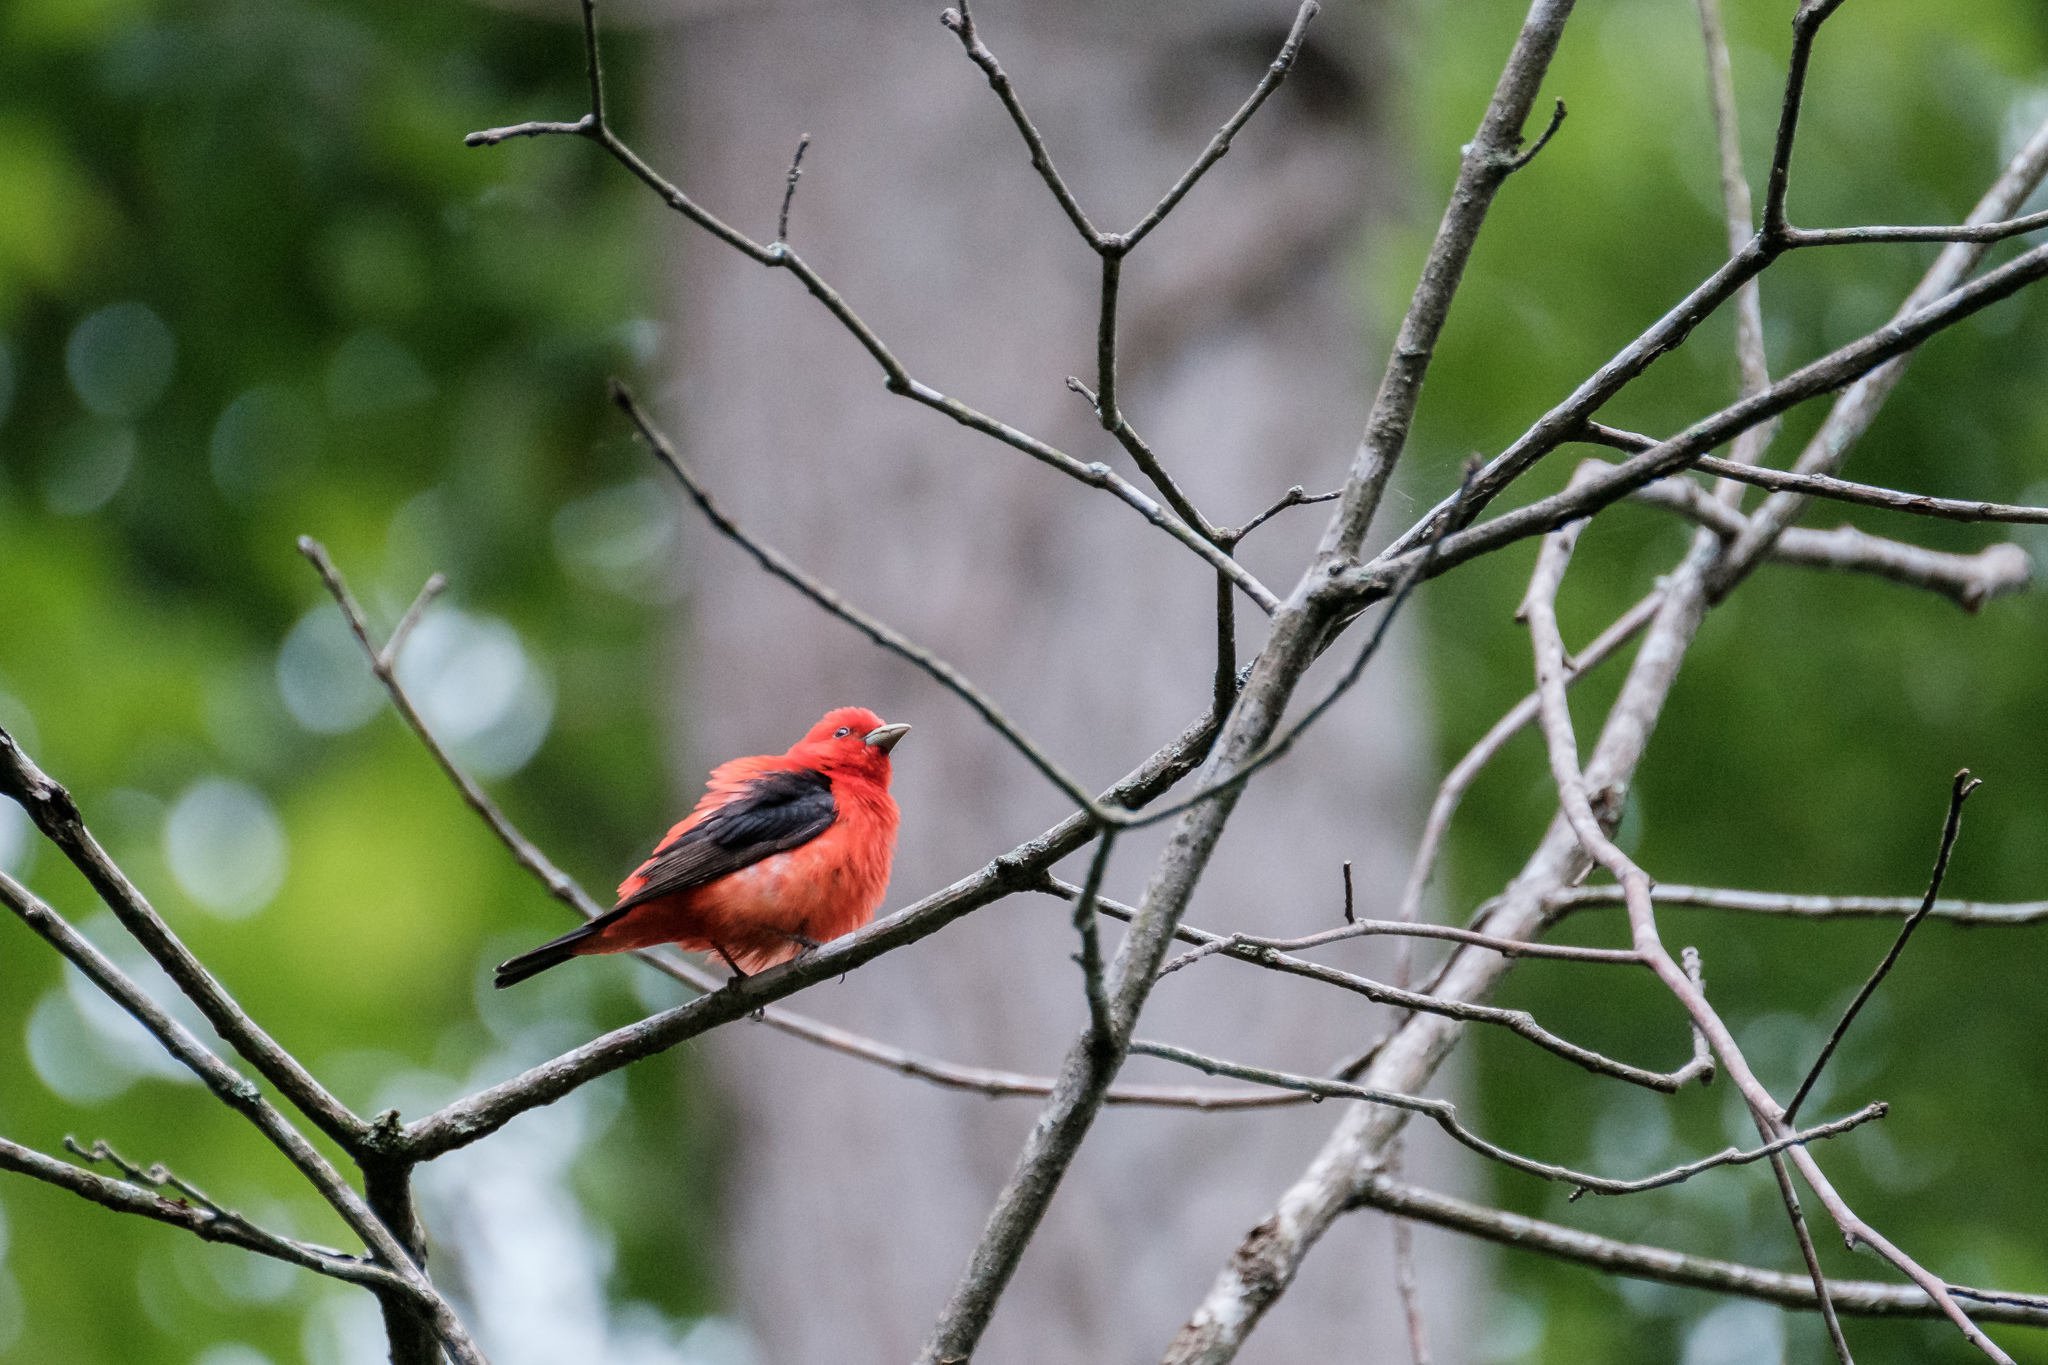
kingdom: Animalia
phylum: Chordata
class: Aves
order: Passeriformes
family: Cardinalidae
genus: Piranga
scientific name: Piranga olivacea
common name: Scarlet tanager
